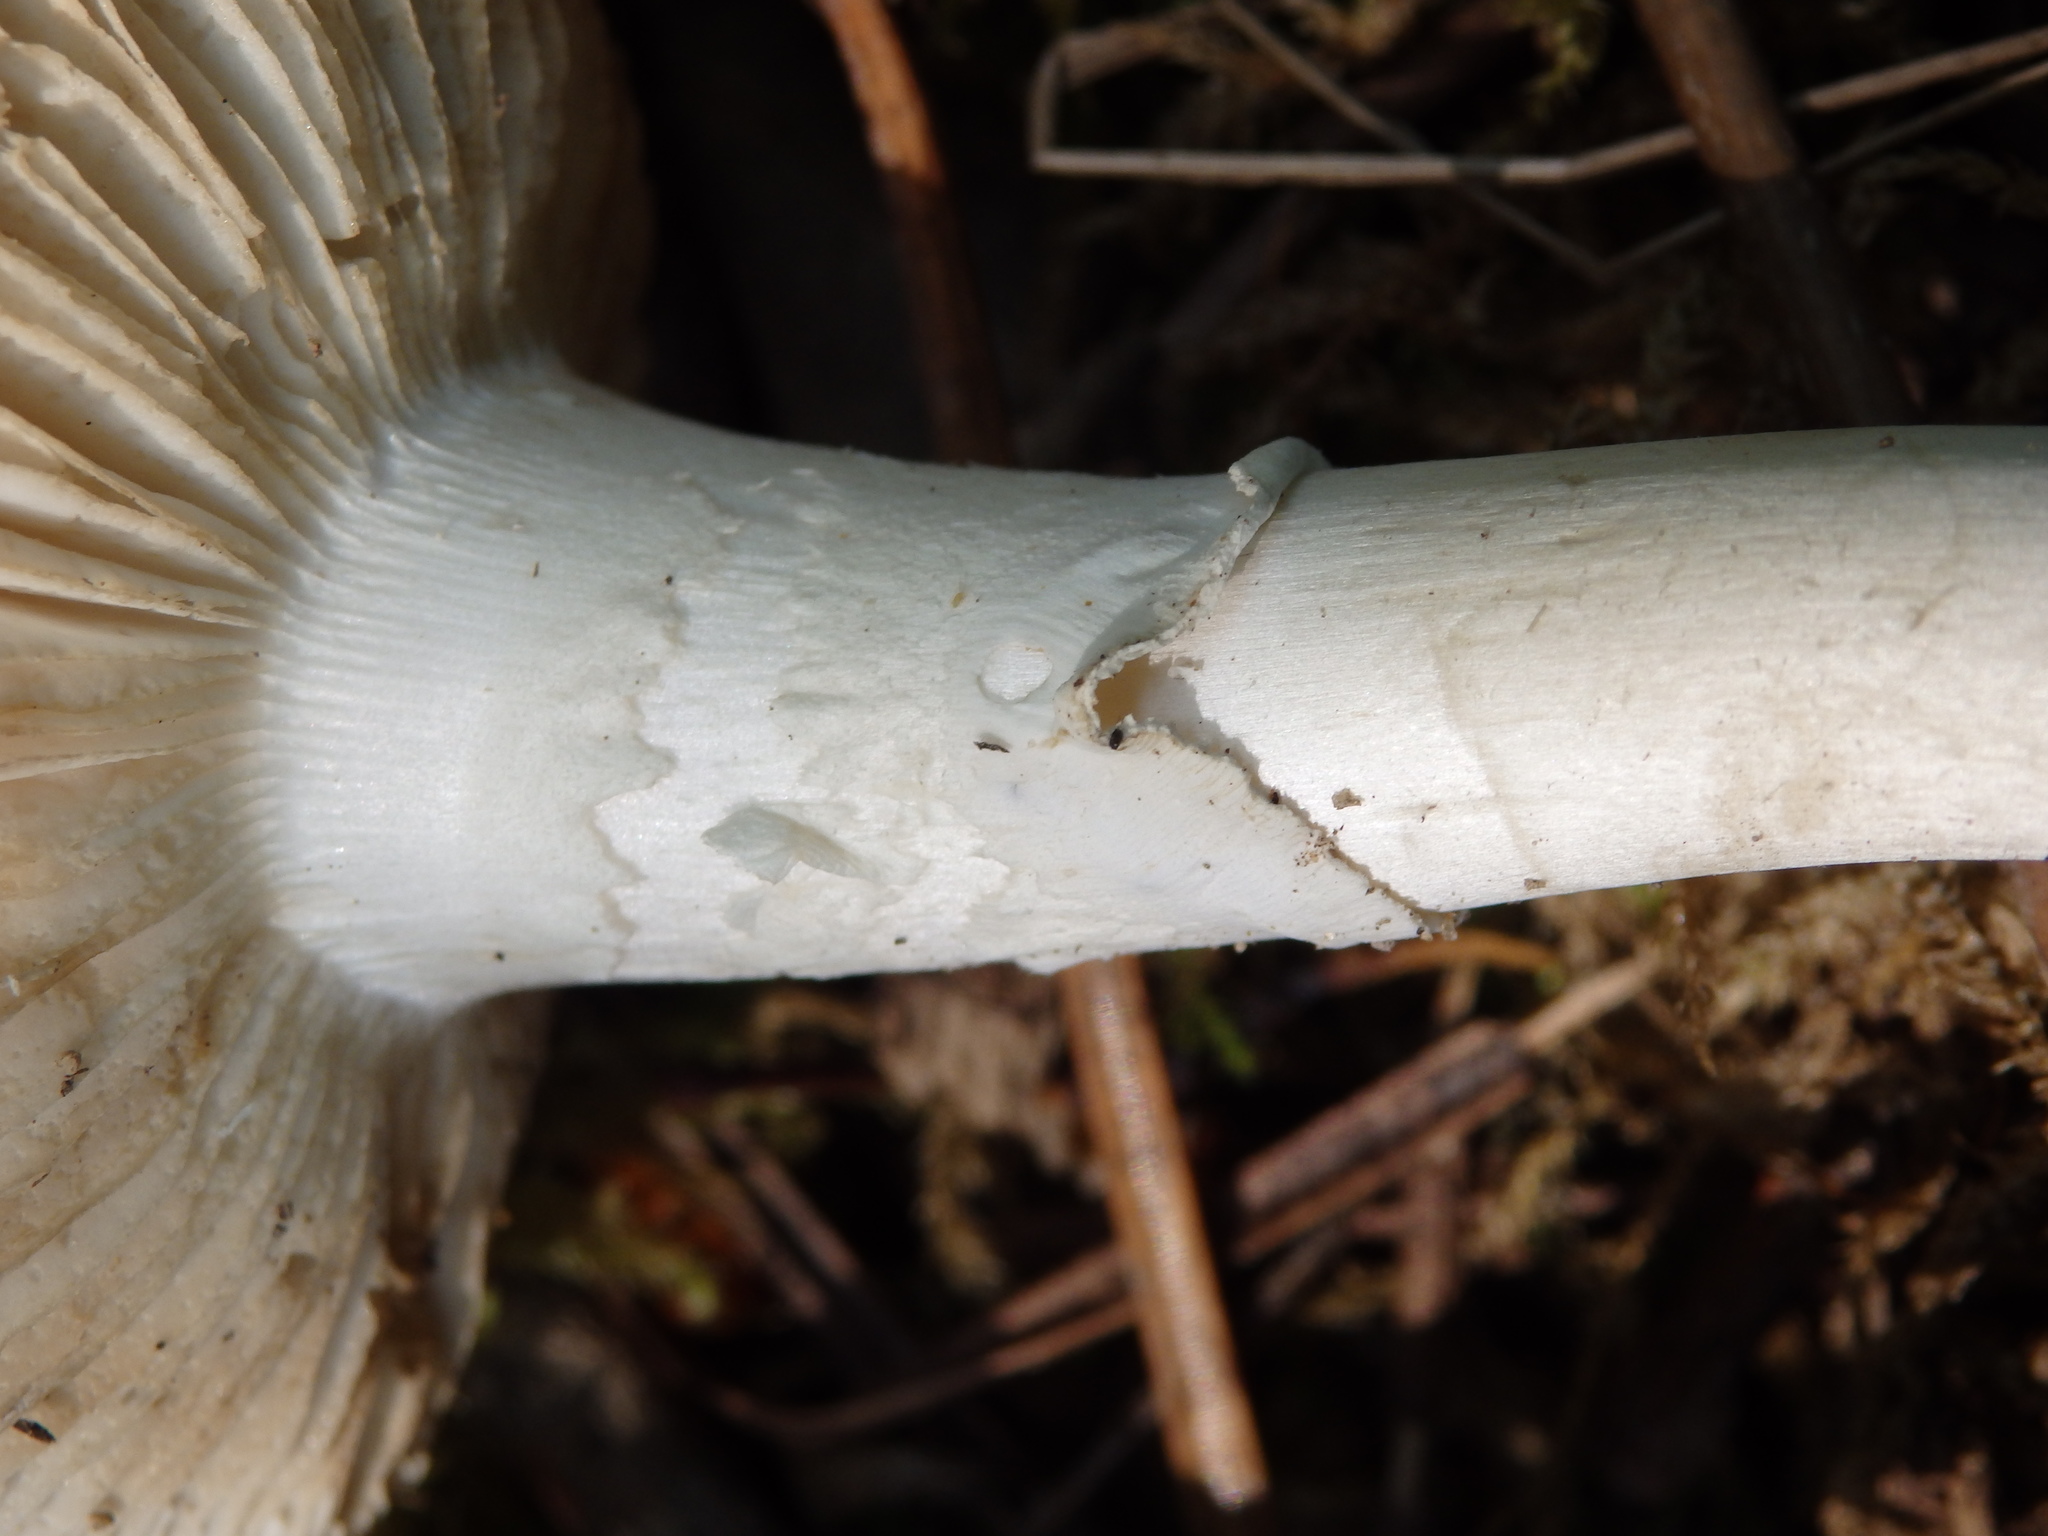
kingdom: Fungi
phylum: Basidiomycota
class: Agaricomycetes
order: Agaricales
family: Amanitaceae
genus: Amanita
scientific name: Amanita verna
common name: Fool's mushroom
